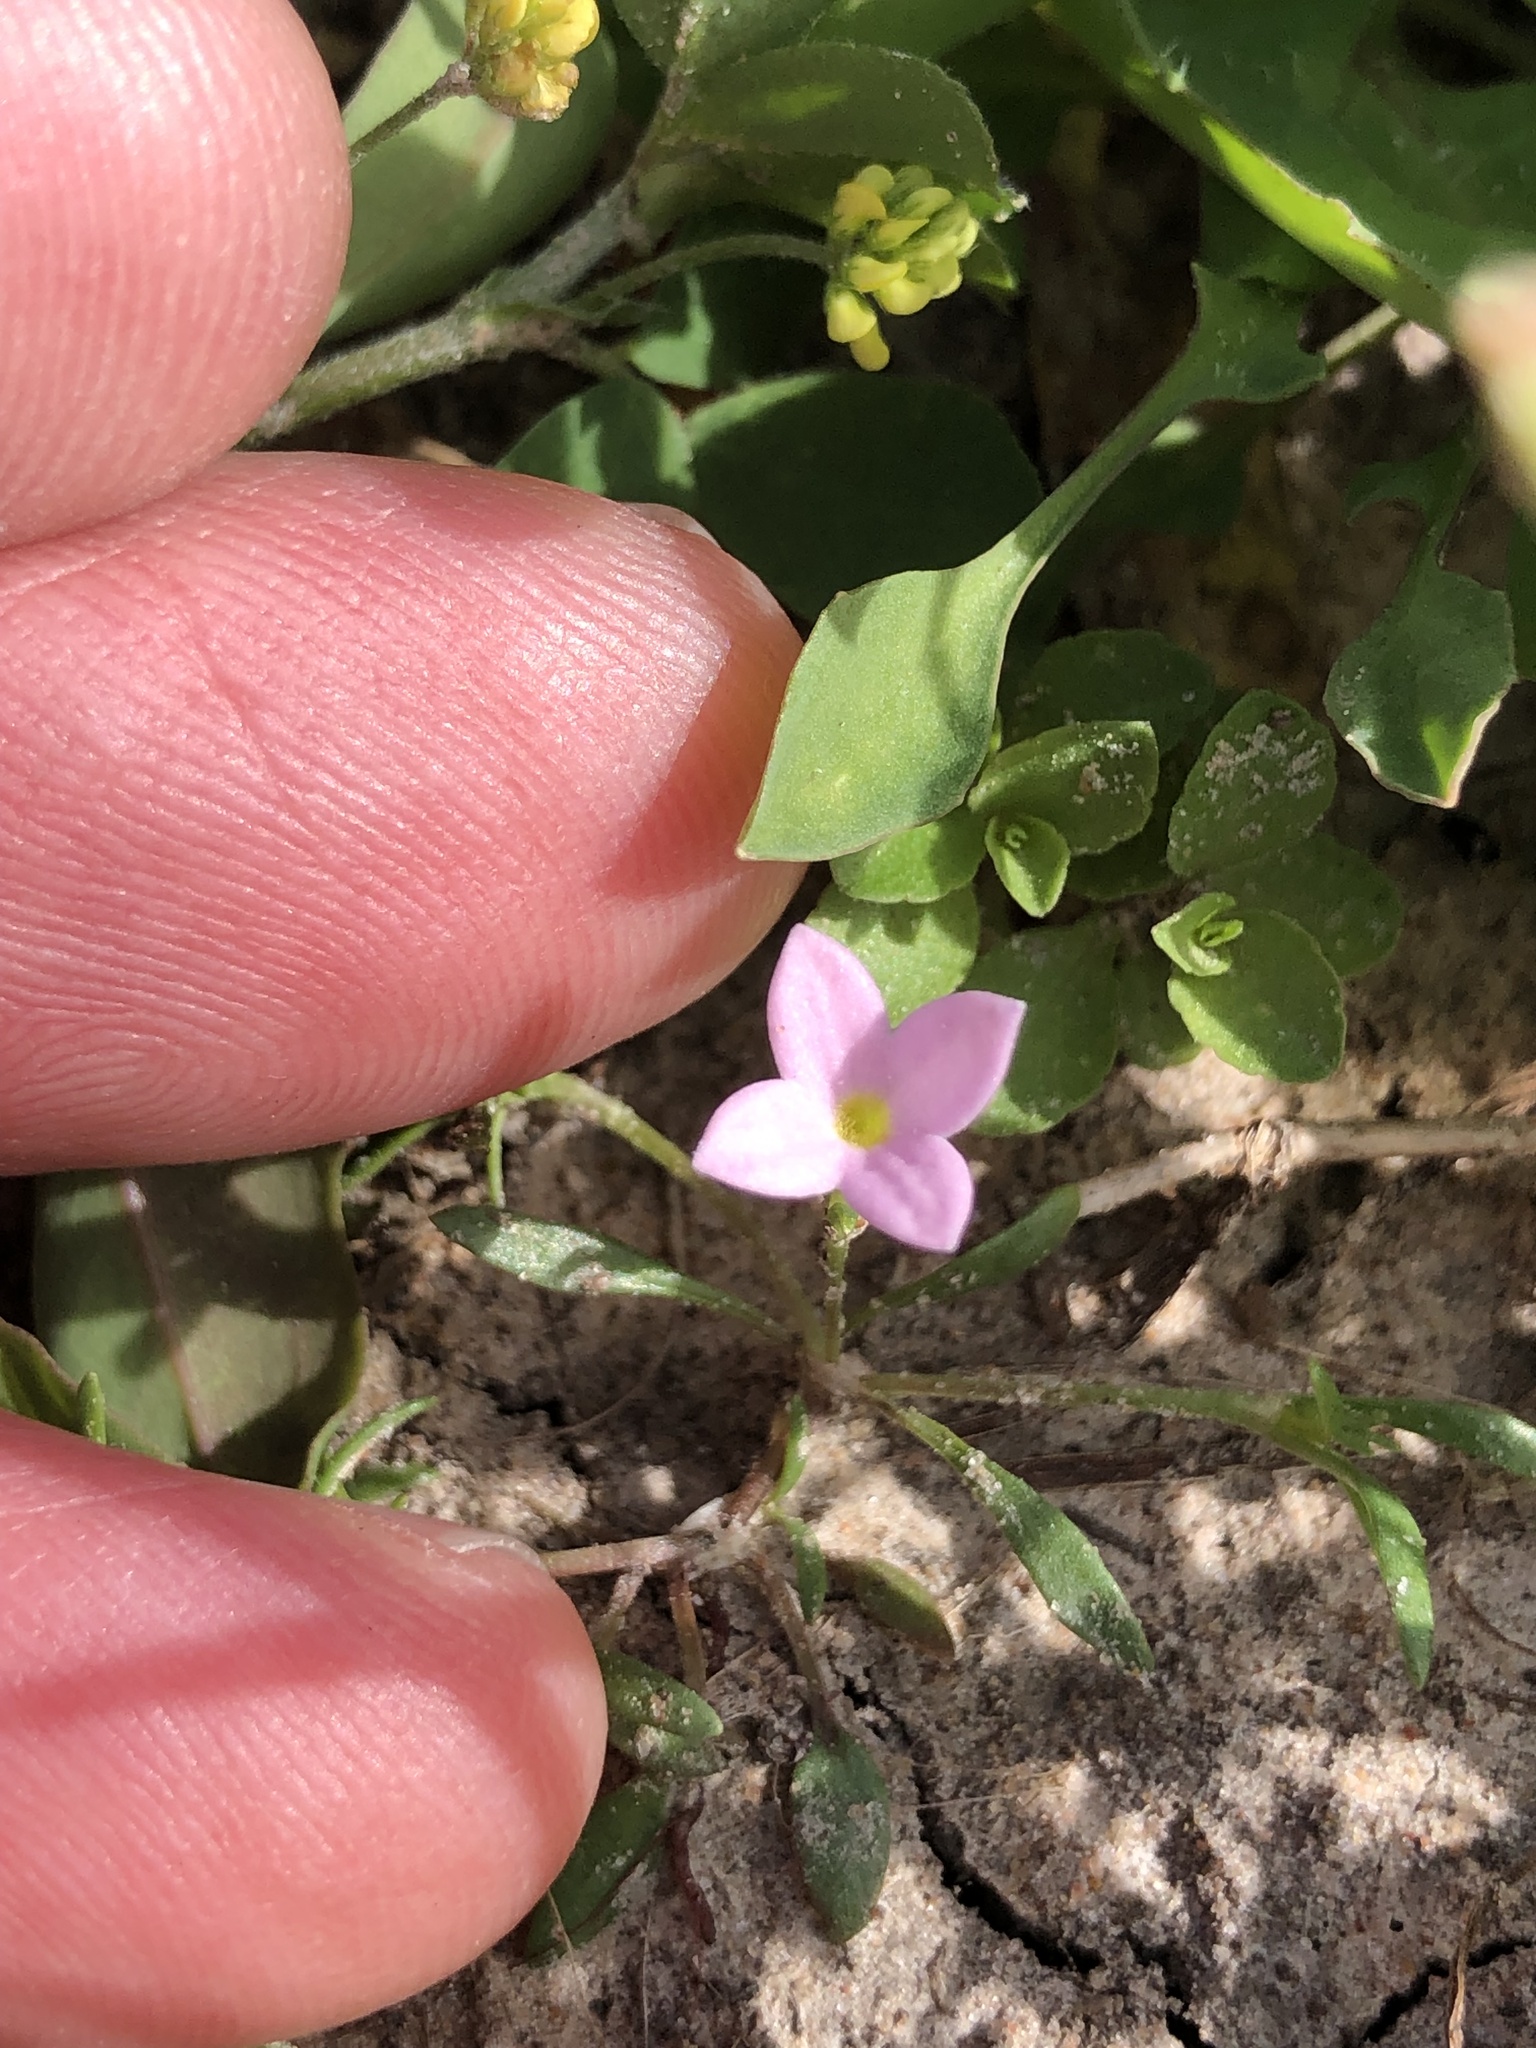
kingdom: Plantae
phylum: Tracheophyta
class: Magnoliopsida
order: Gentianales
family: Rubiaceae
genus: Houstonia
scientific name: Houstonia rosea
